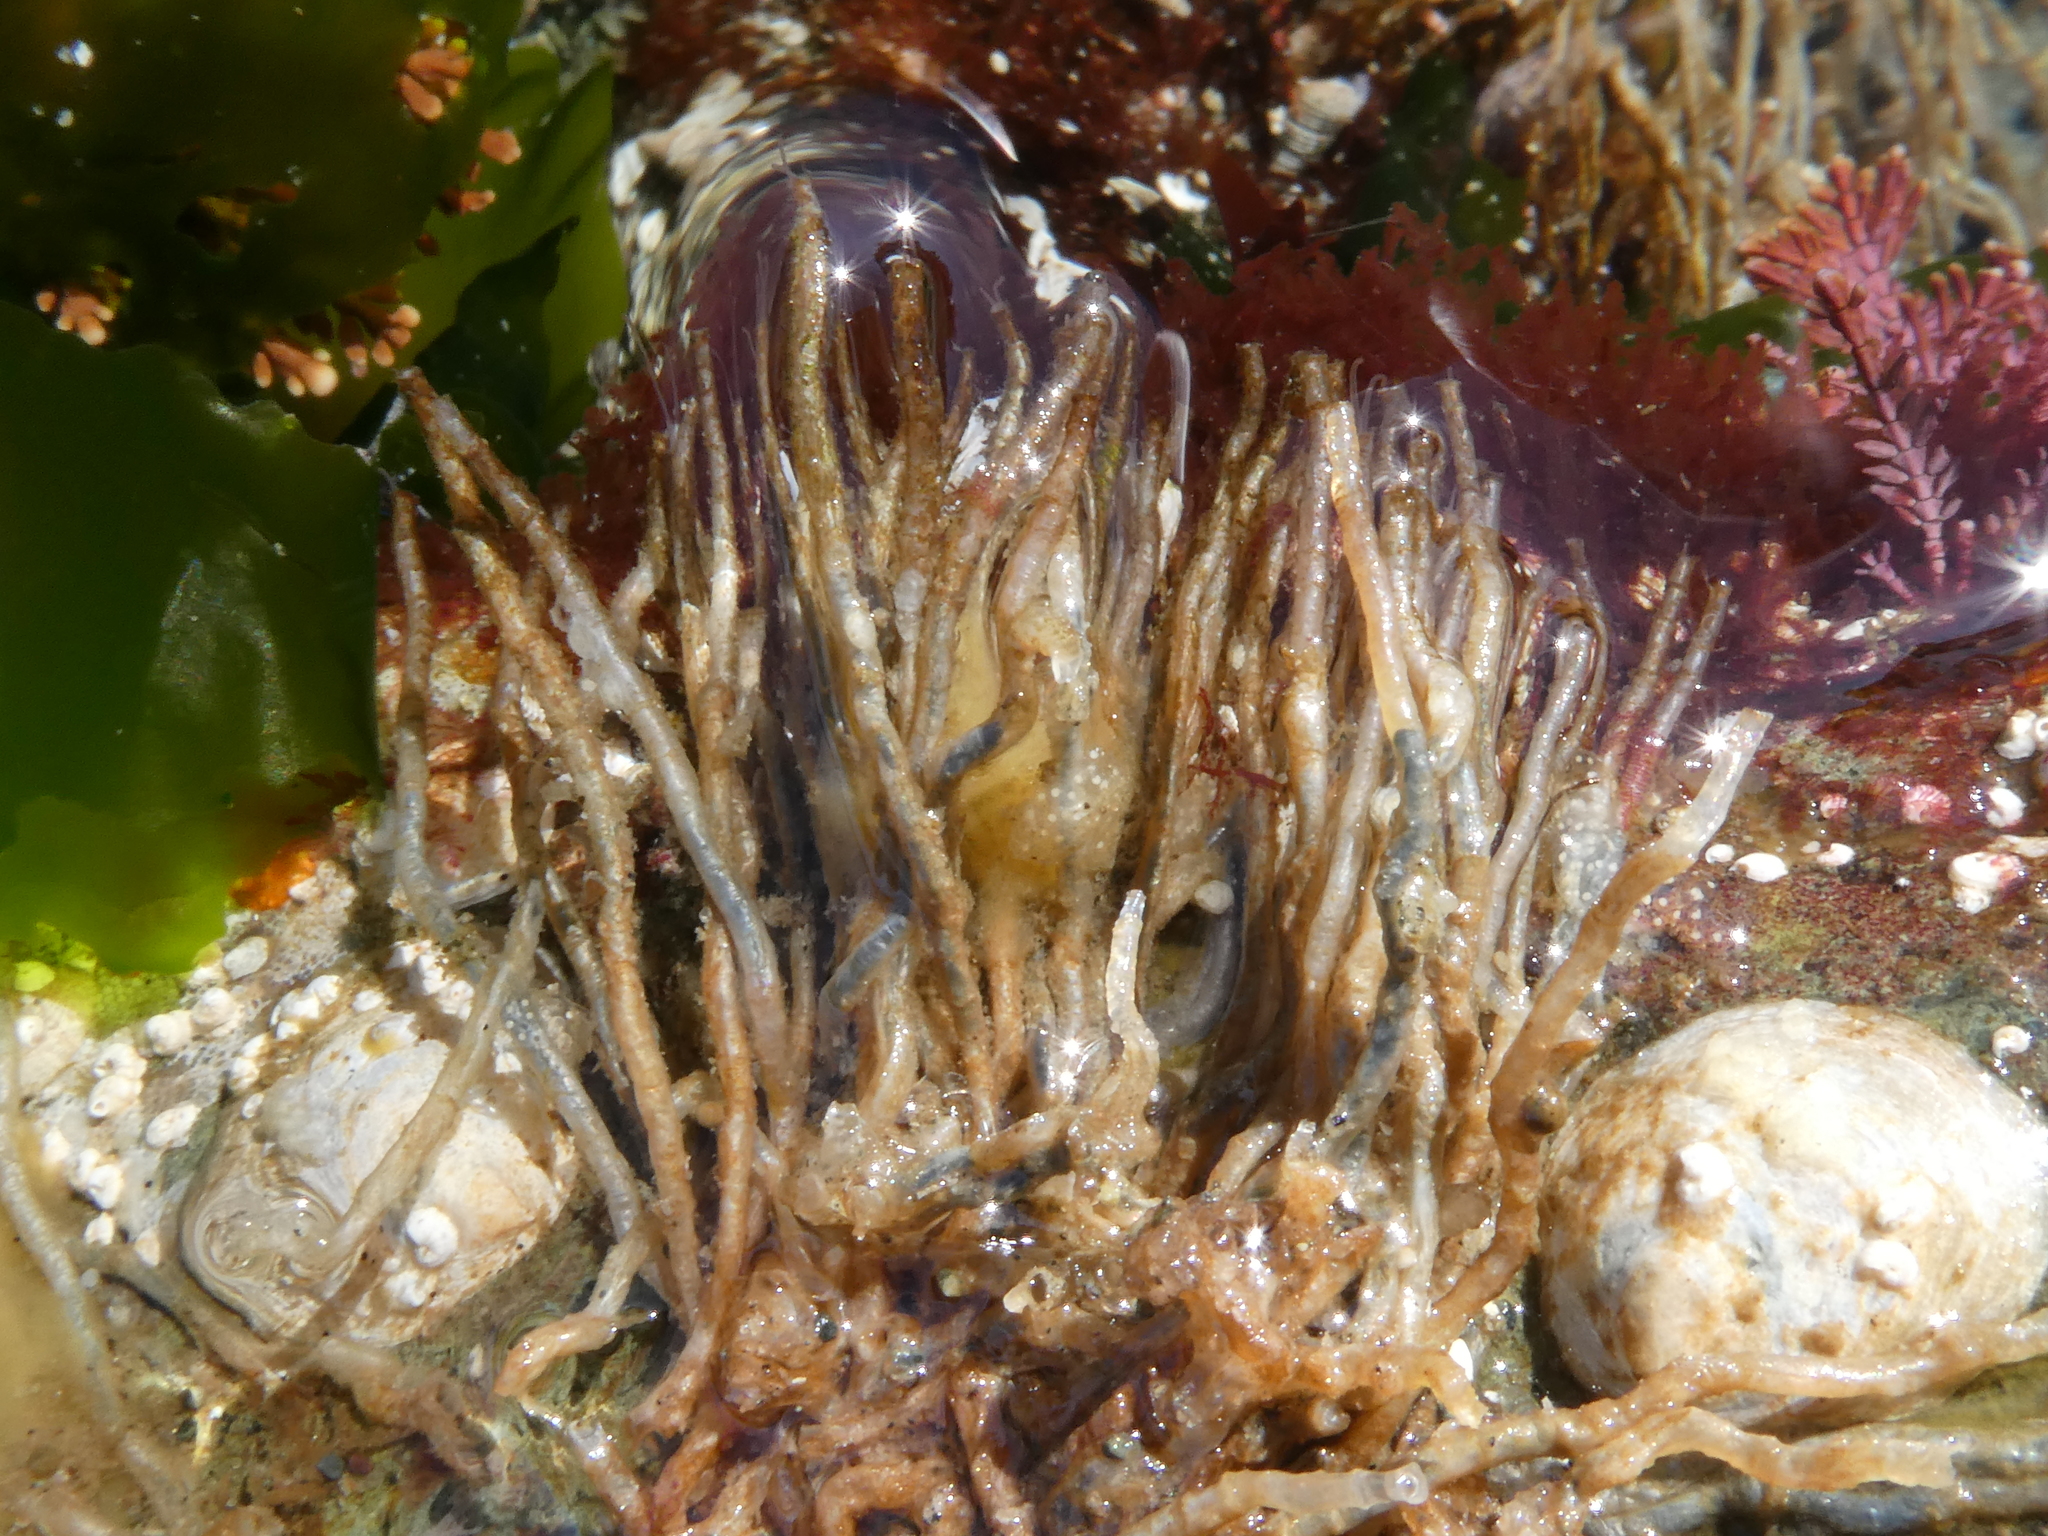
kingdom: Animalia
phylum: Annelida
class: Polychaeta
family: Chaetopteridae
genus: Phyllochaetopterus
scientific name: Phyllochaetopterus prolifica
